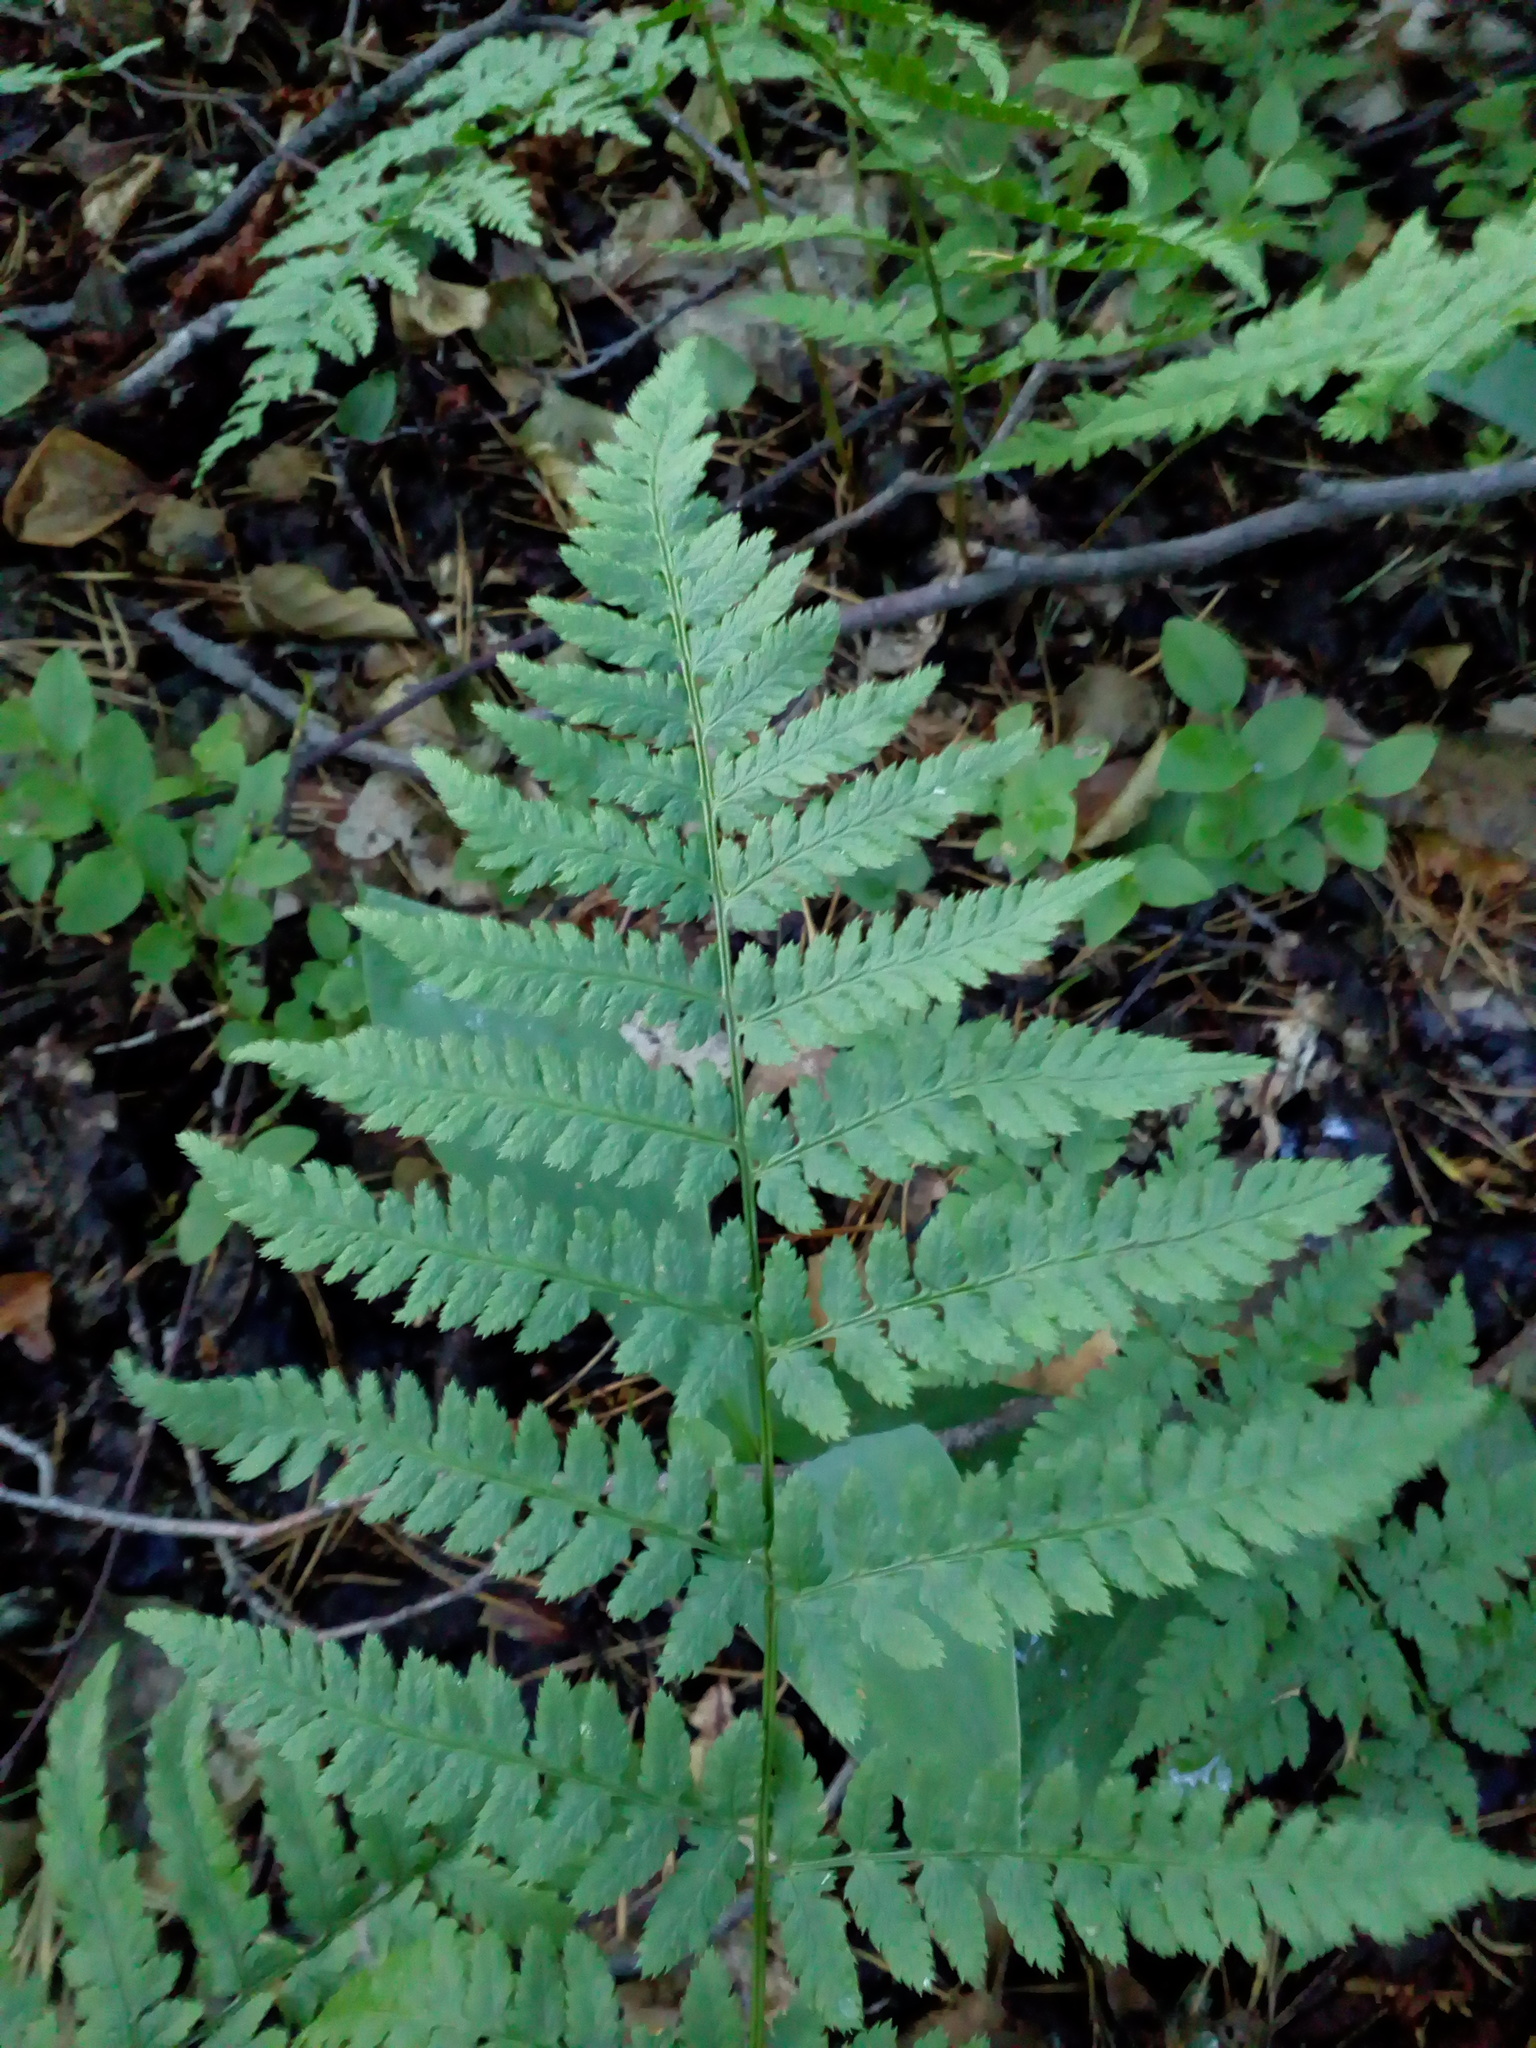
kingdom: Plantae
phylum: Tracheophyta
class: Polypodiopsida
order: Polypodiales
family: Dryopteridaceae
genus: Dryopteris
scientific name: Dryopteris carthusiana
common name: Narrow buckler-fern
